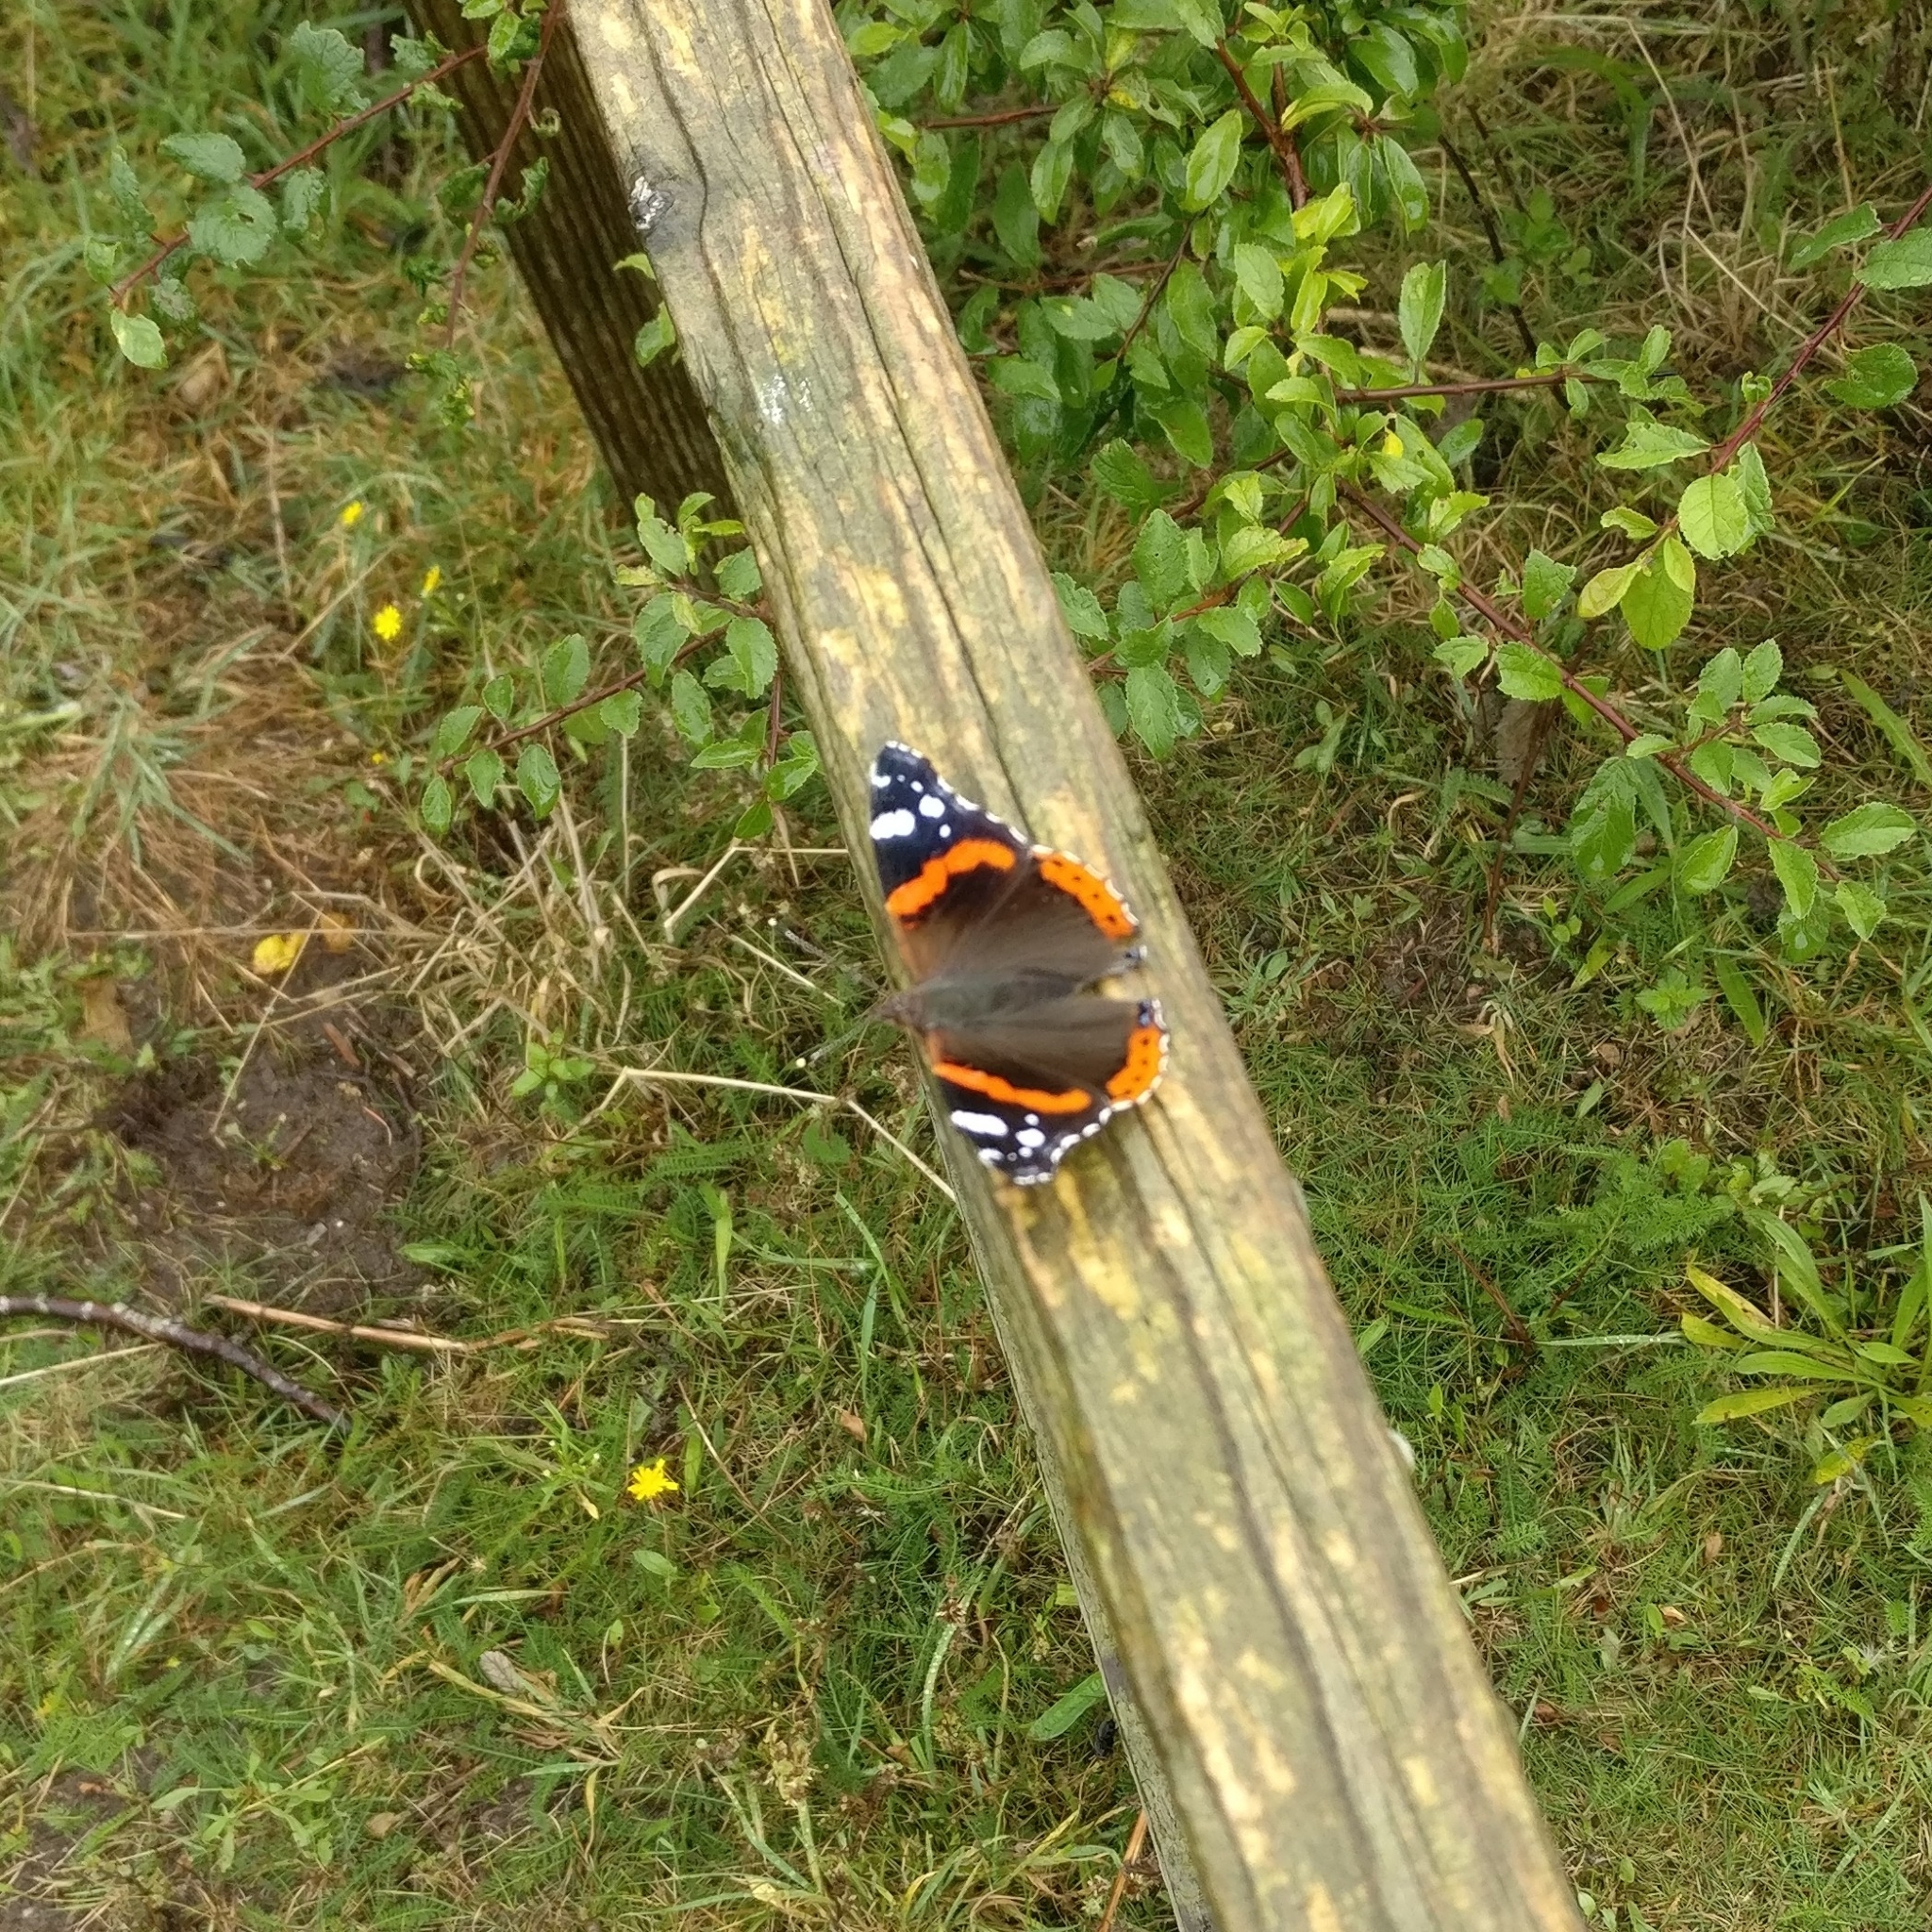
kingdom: Animalia
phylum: Arthropoda
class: Insecta
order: Lepidoptera
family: Nymphalidae
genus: Vanessa
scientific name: Vanessa atalanta
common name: Red admiral
